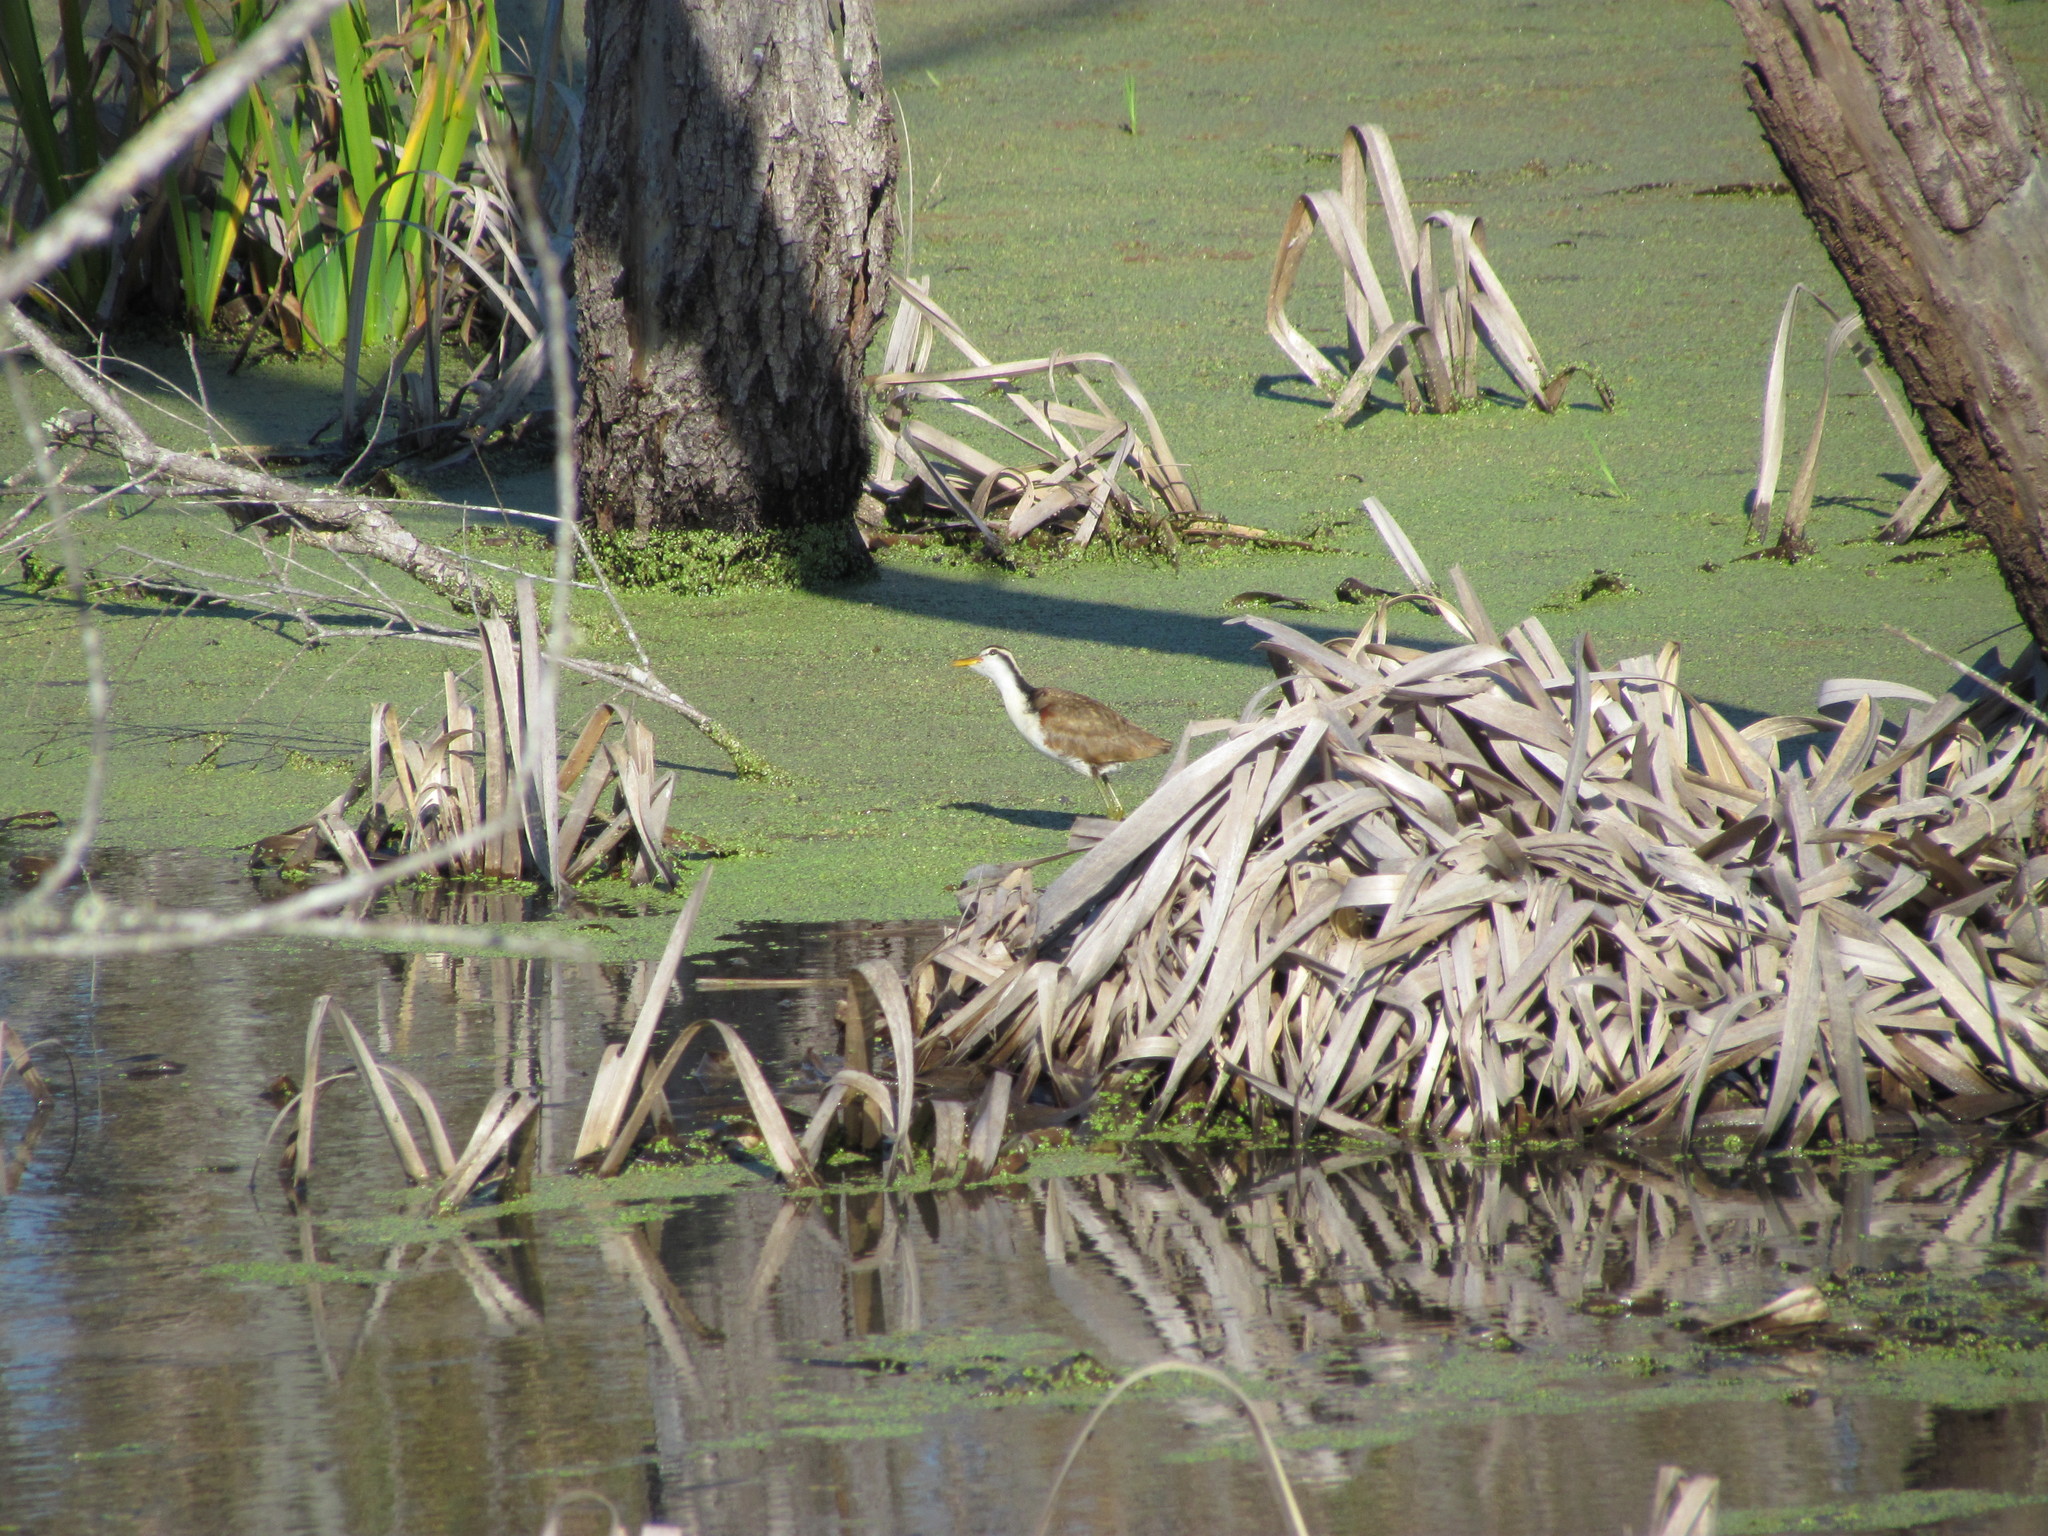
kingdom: Animalia
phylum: Chordata
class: Aves
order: Charadriiformes
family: Jacanidae
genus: Jacana
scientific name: Jacana jacana
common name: Wattled jacana
